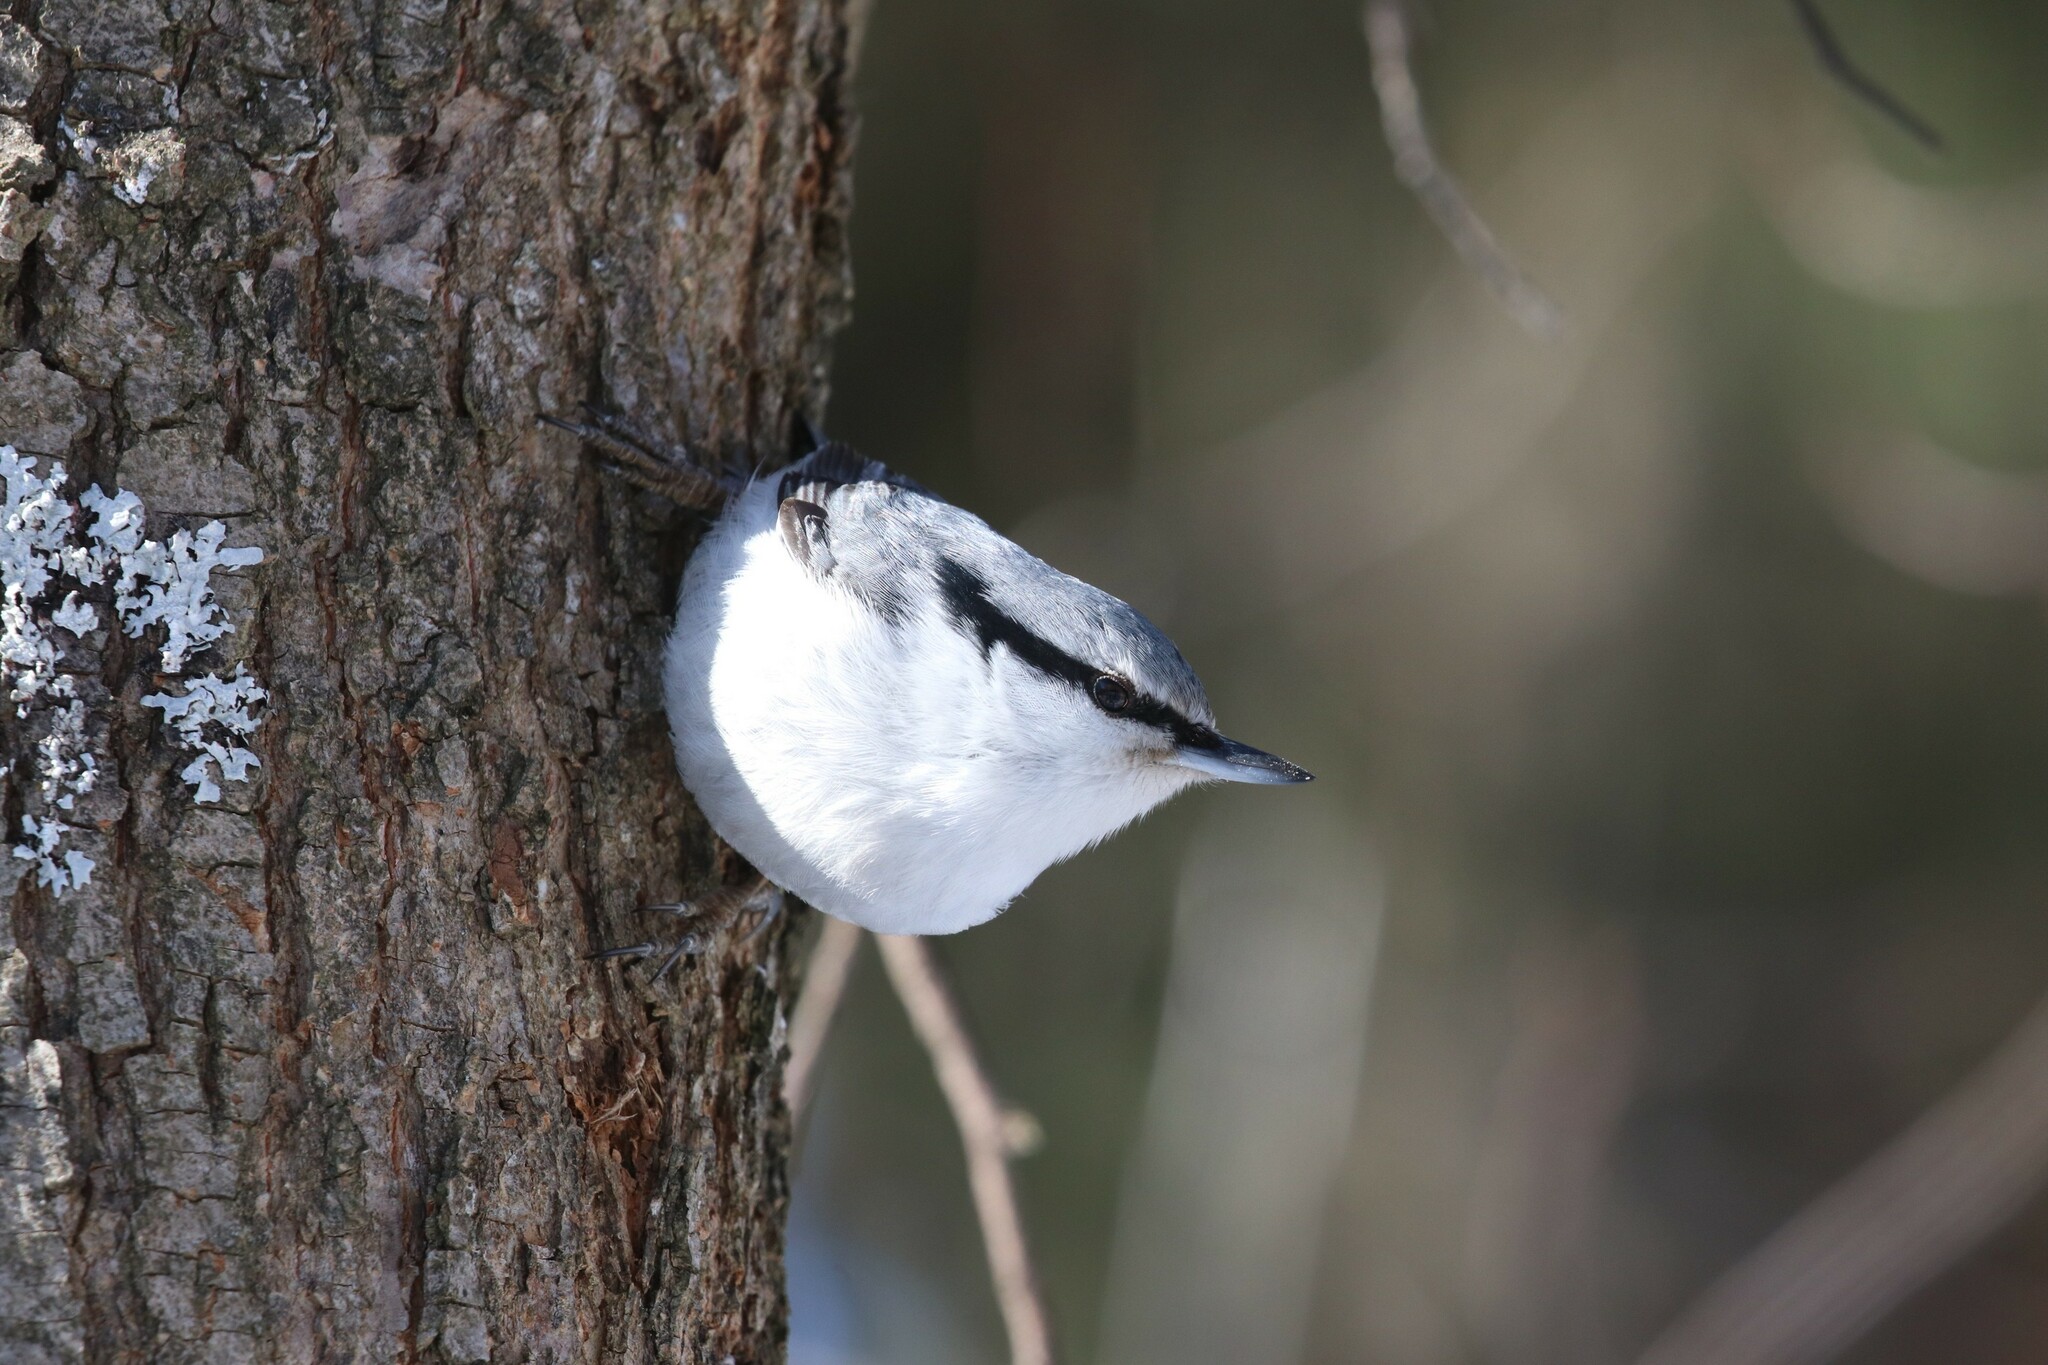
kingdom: Animalia
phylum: Chordata
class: Aves
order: Passeriformes
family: Sittidae
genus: Sitta
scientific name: Sitta europaea
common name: Eurasian nuthatch
